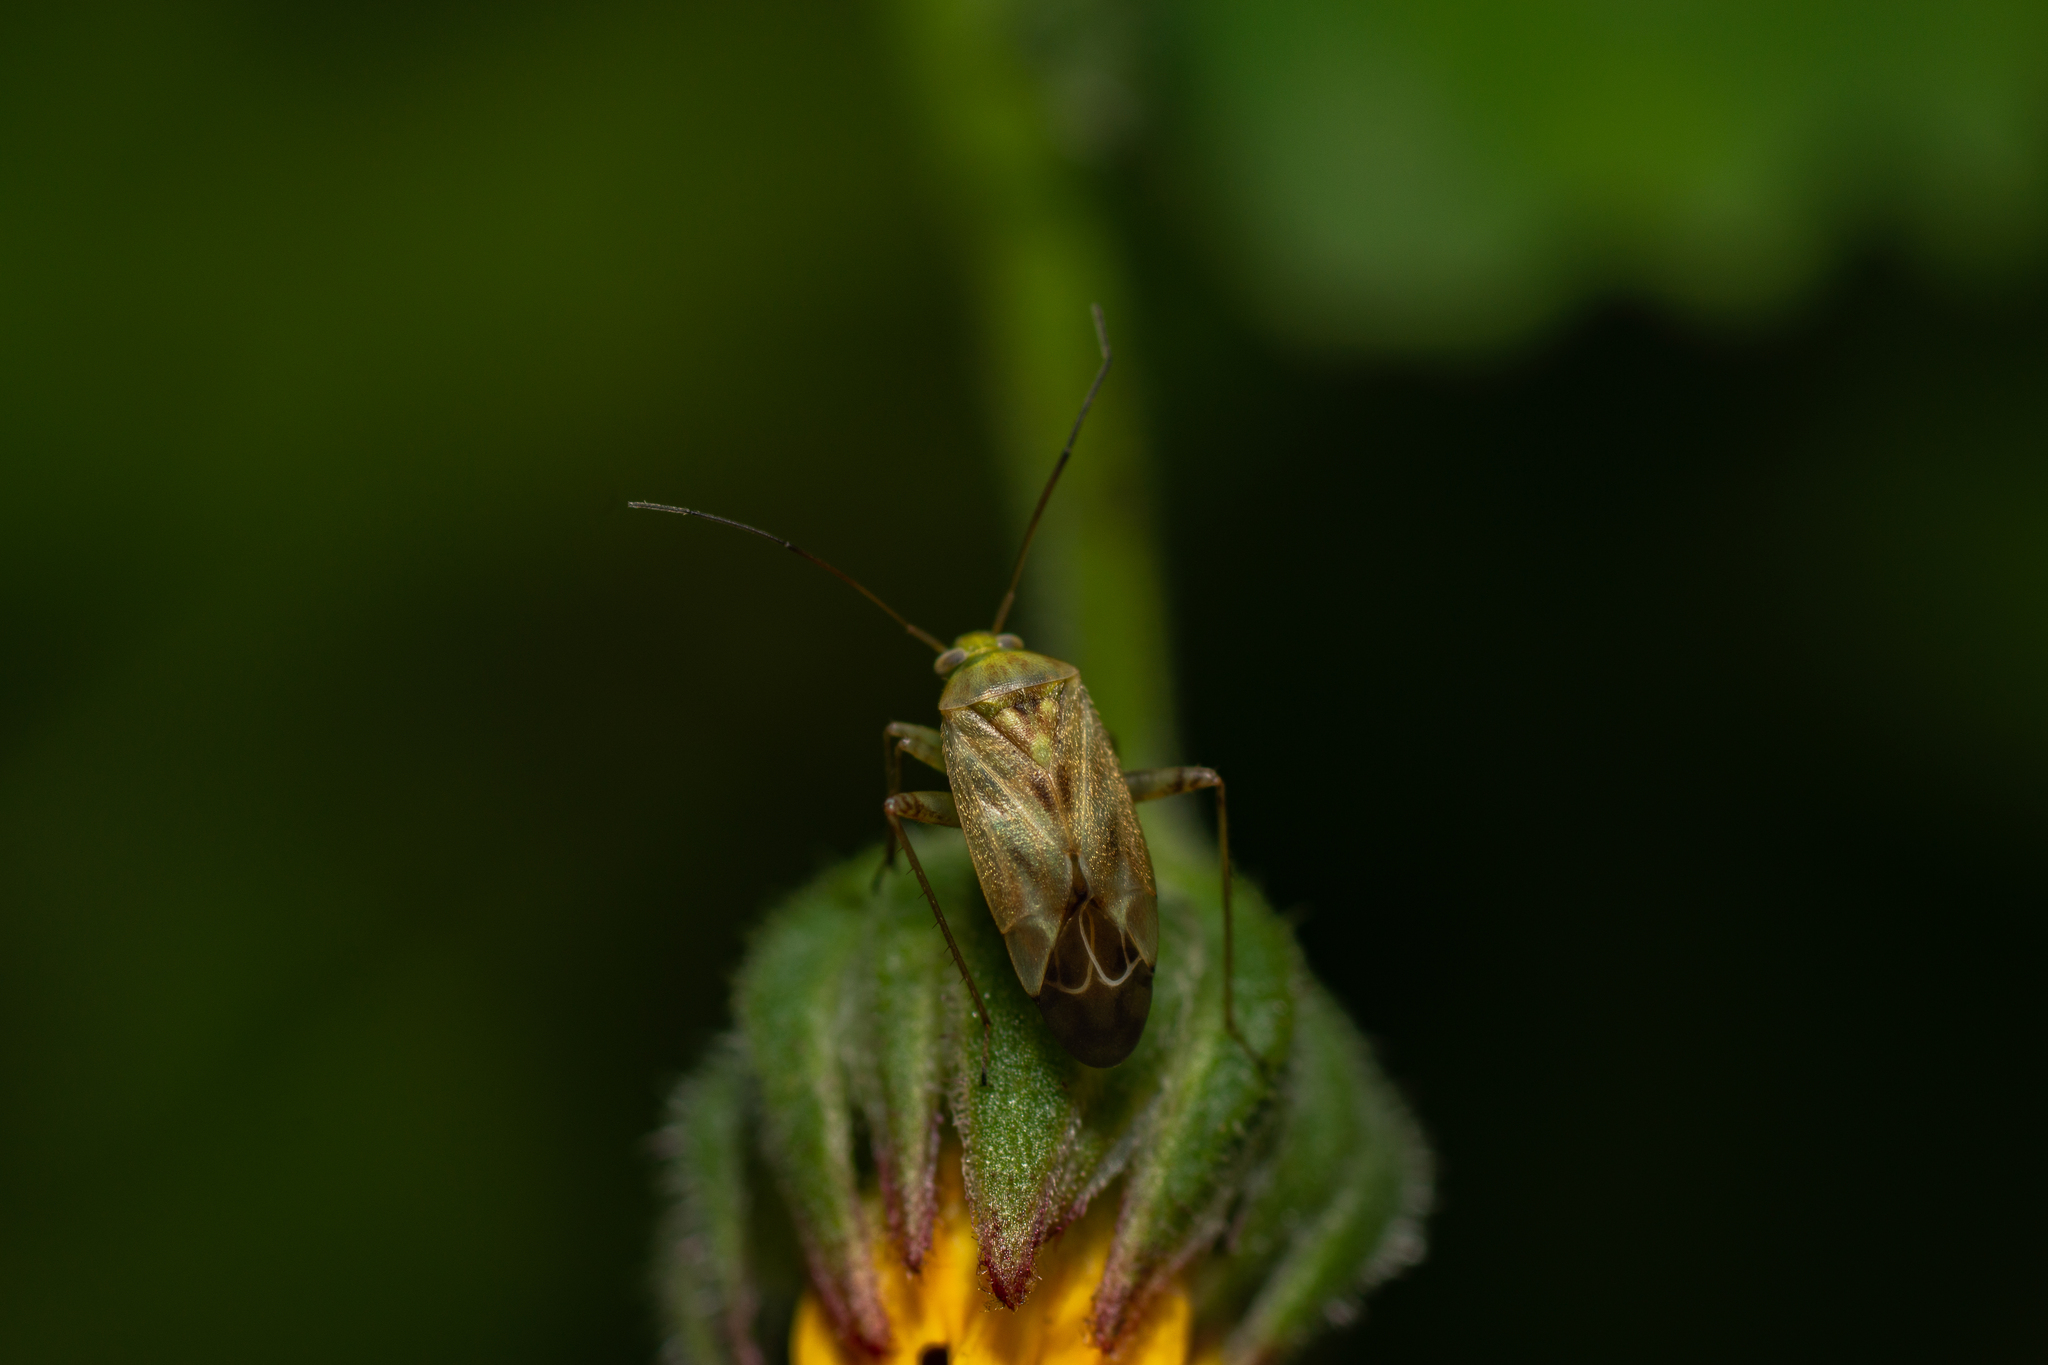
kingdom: Animalia
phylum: Arthropoda
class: Insecta
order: Hemiptera
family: Miridae
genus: Taylorilygus
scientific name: Taylorilygus apicalis
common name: Plant bug
